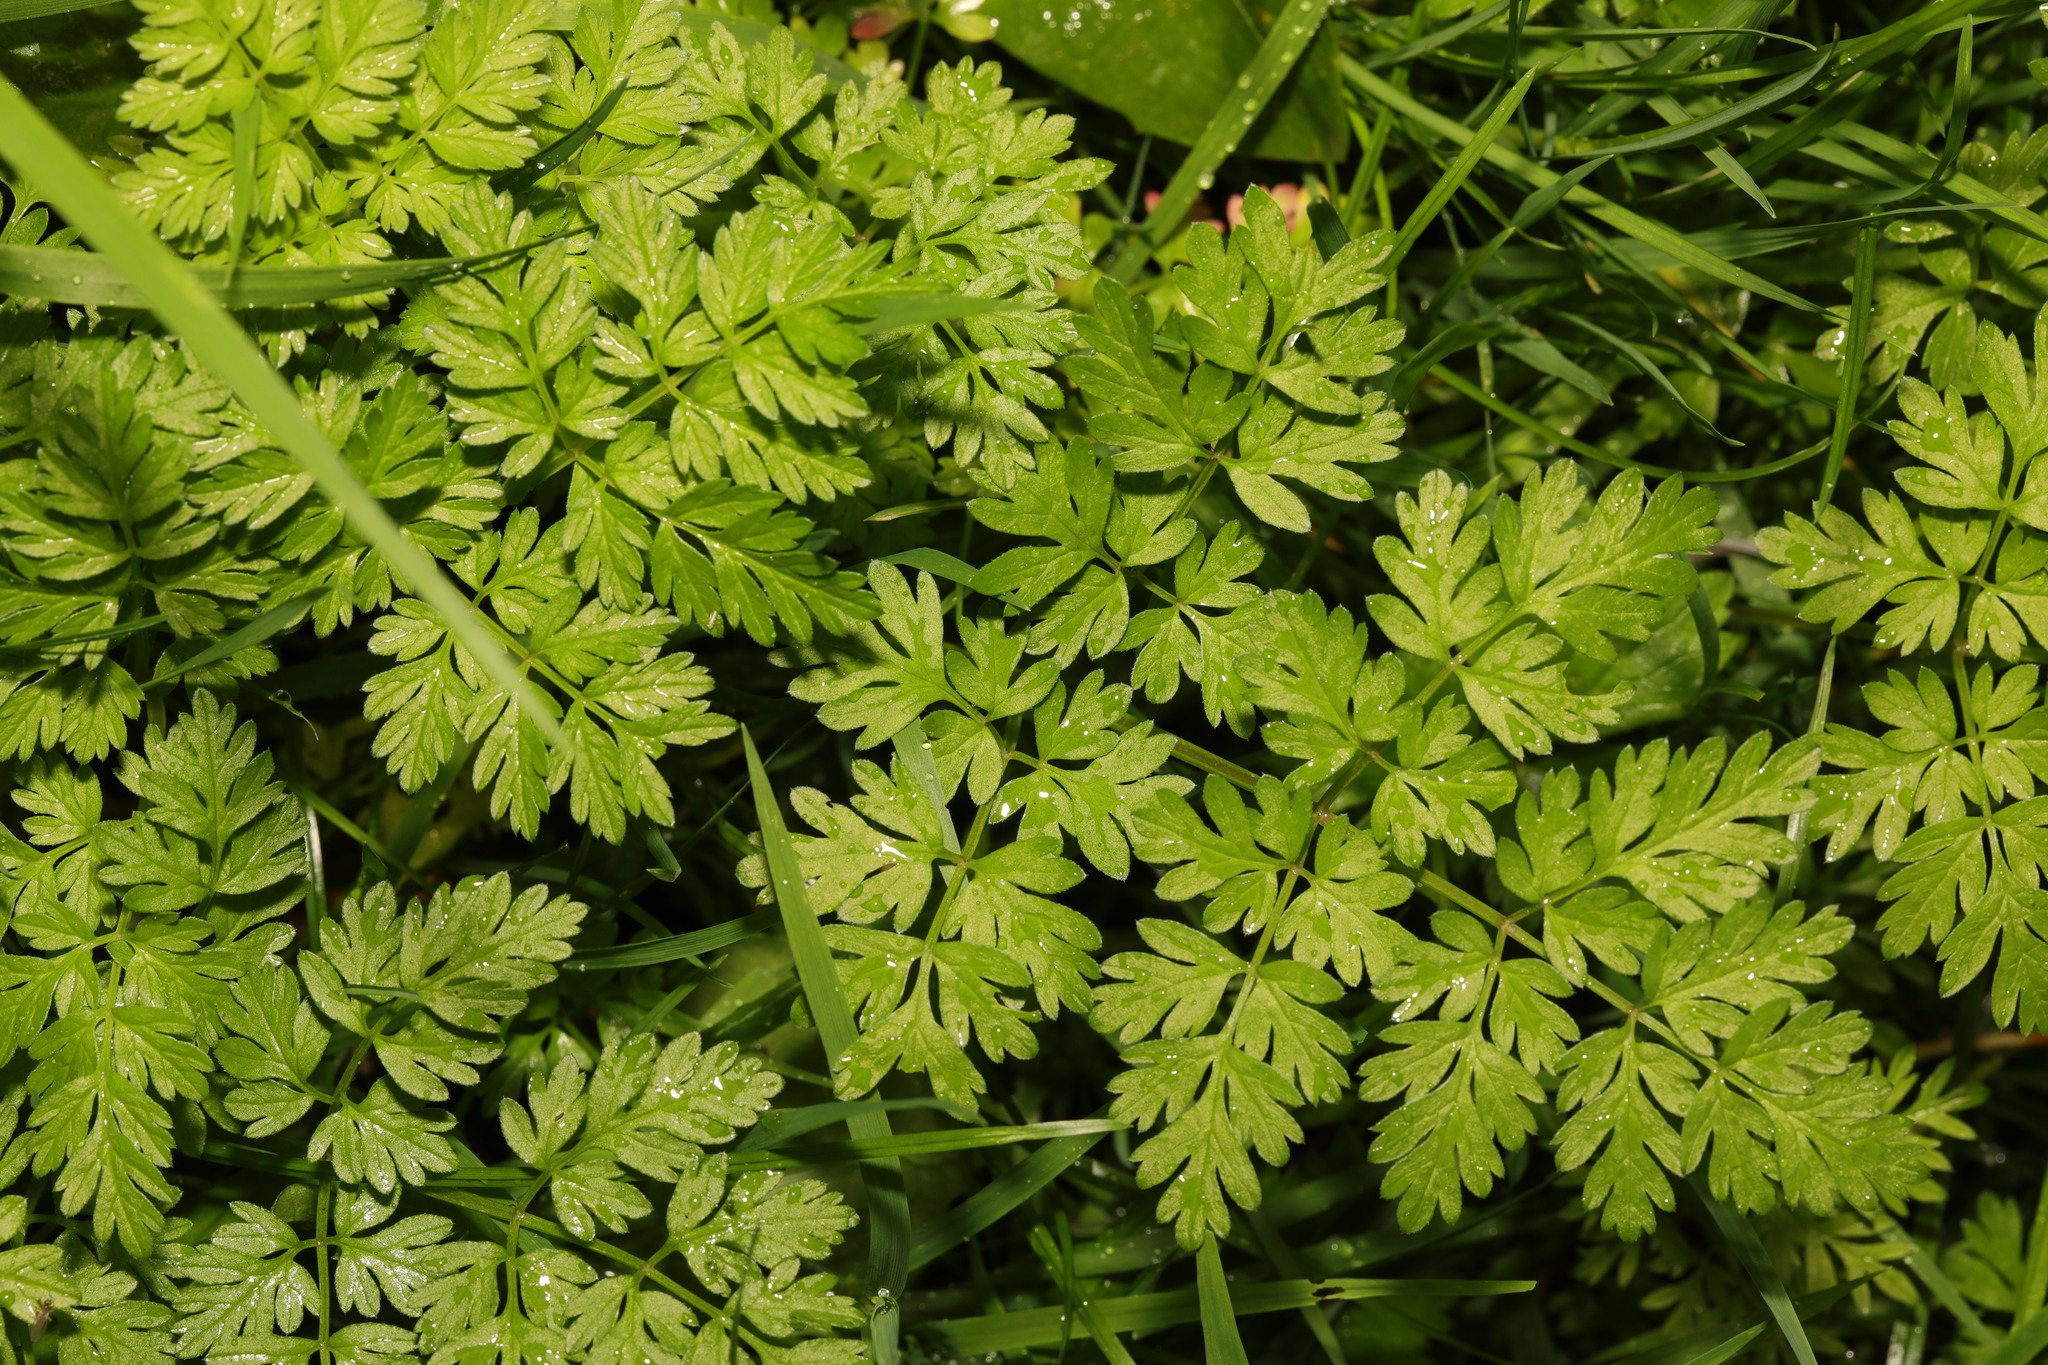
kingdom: Plantae
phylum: Tracheophyta
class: Magnoliopsida
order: Apiales
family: Apiaceae
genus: Anthriscus
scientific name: Anthriscus sylvestris
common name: Cow parsley
